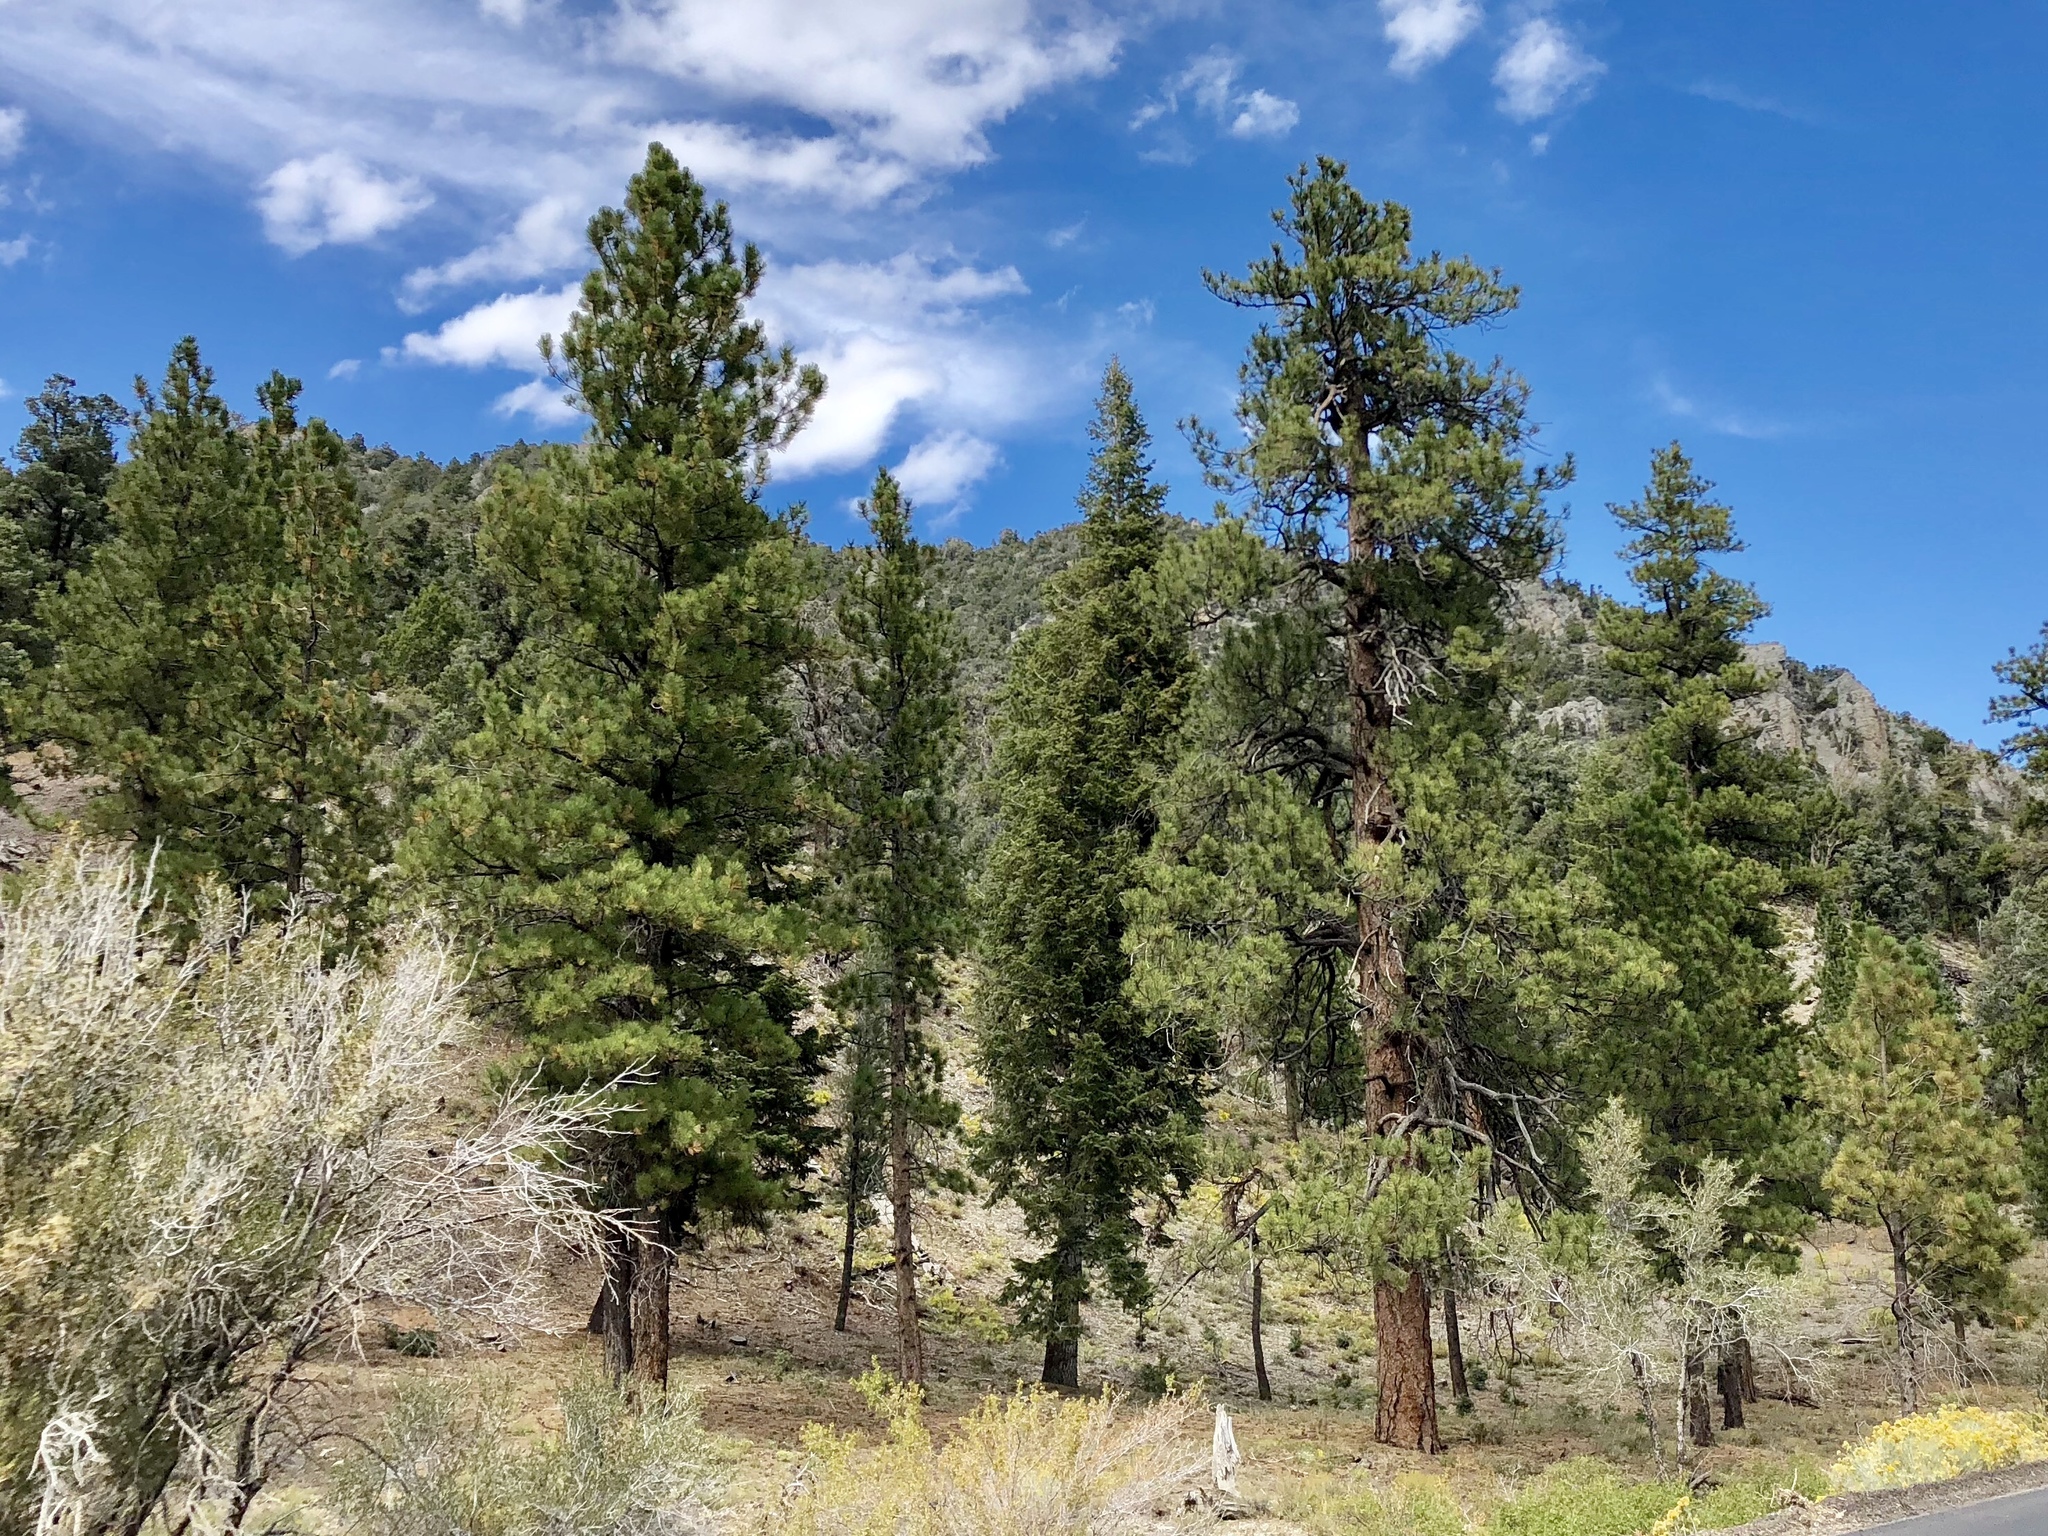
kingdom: Plantae
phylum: Tracheophyta
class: Pinopsida
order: Pinales
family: Pinaceae
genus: Pinus
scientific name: Pinus ponderosa
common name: Western yellow-pine
